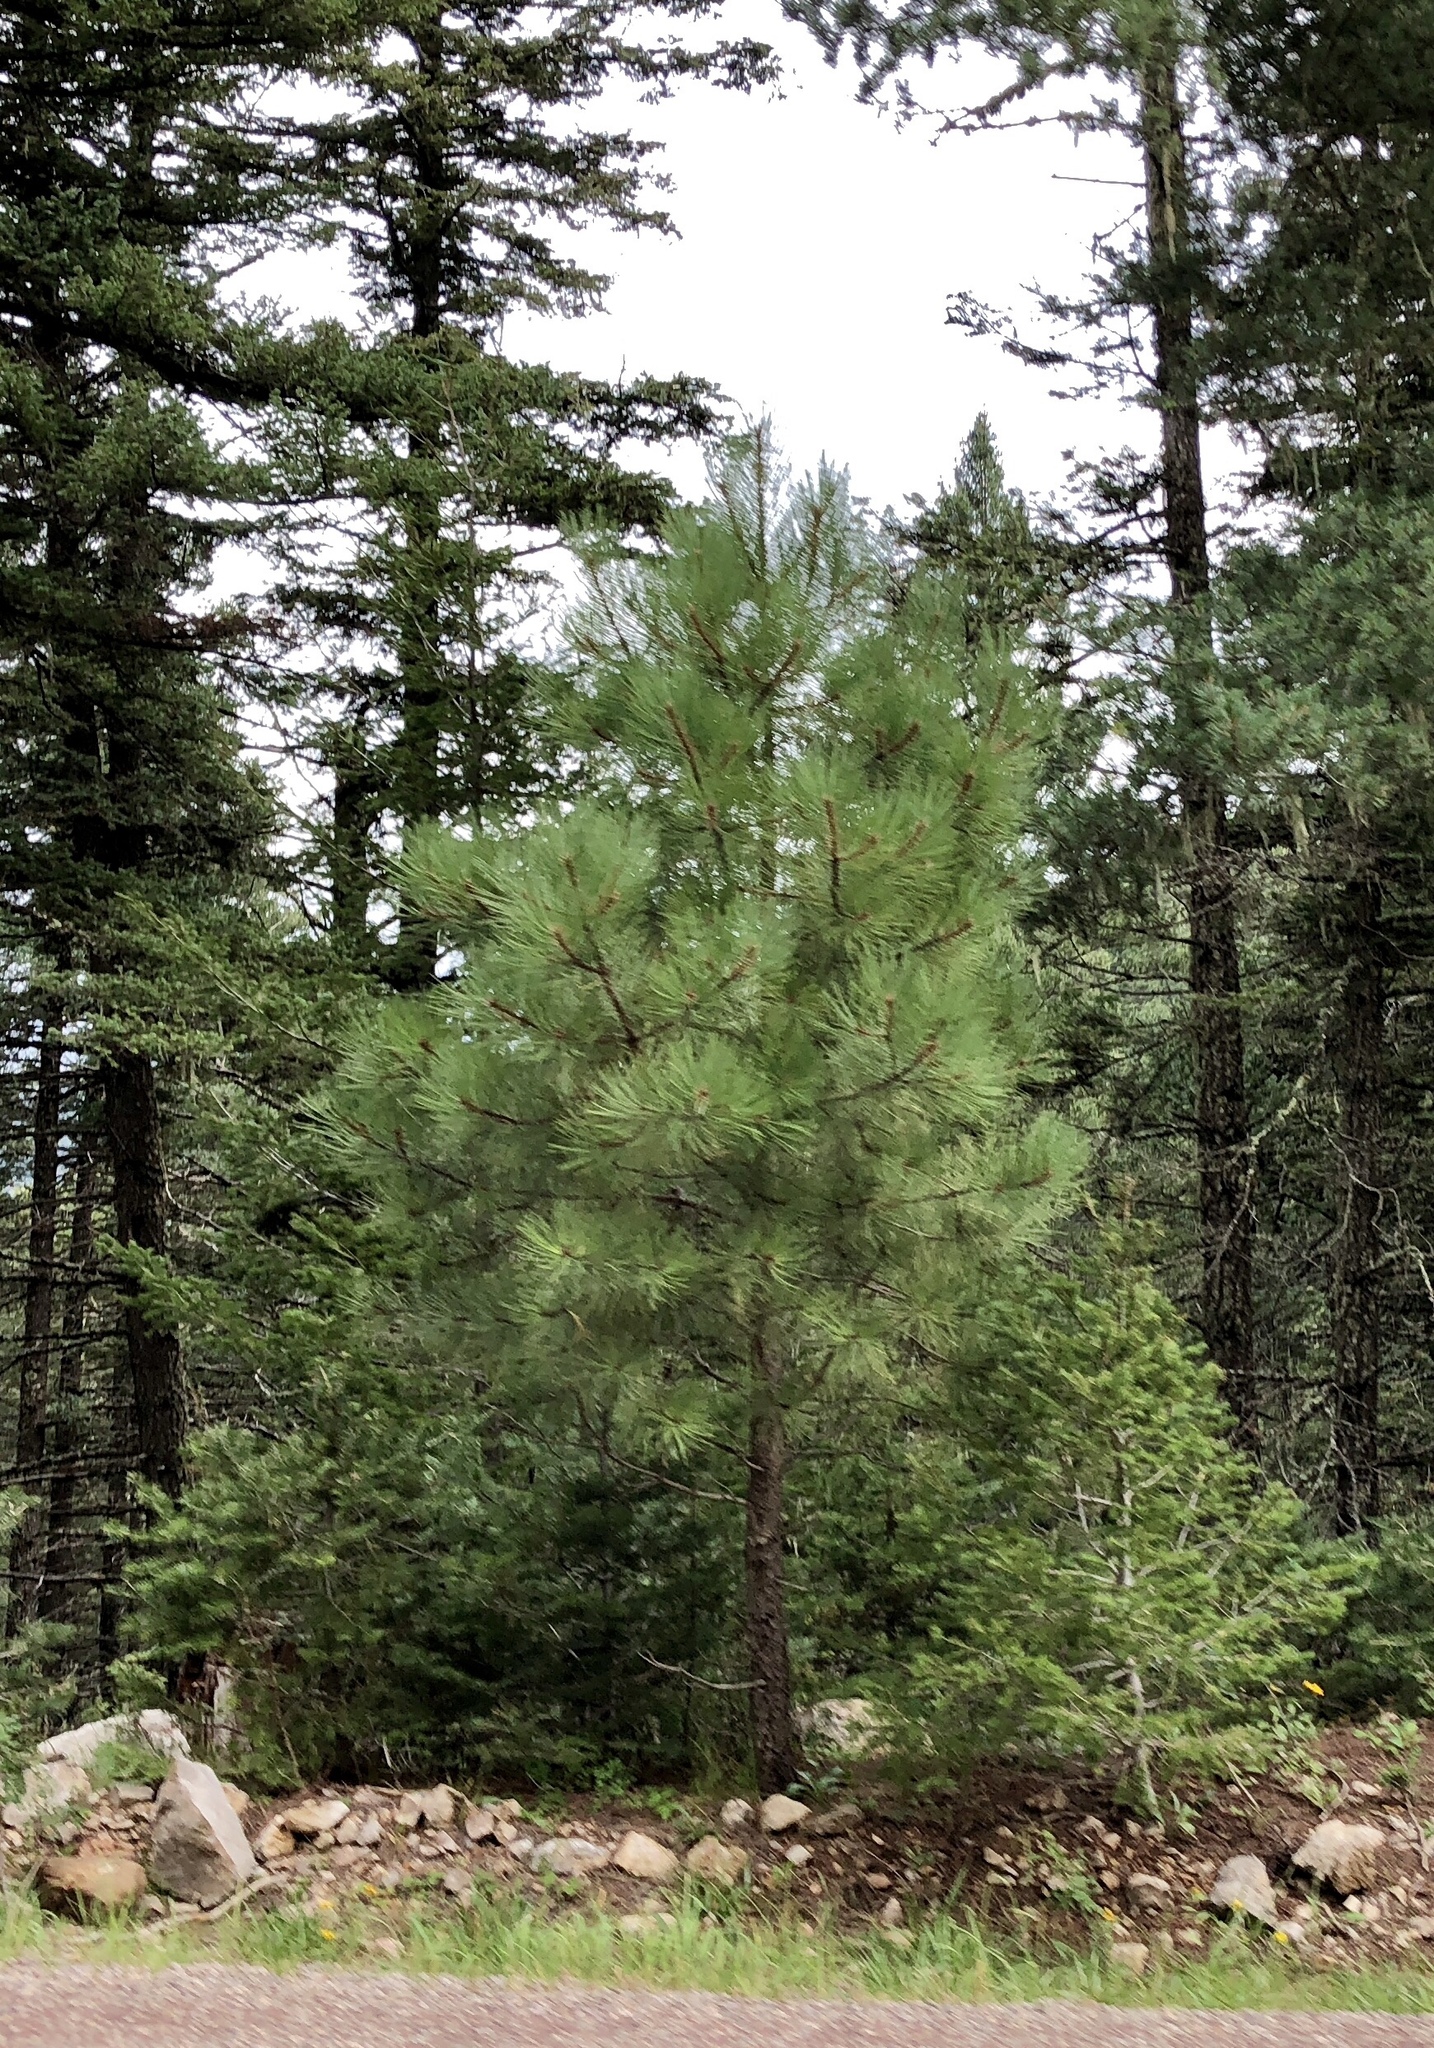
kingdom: Plantae
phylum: Tracheophyta
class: Pinopsida
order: Pinales
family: Pinaceae
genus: Pinus
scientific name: Pinus ponderosa
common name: Western yellow-pine
